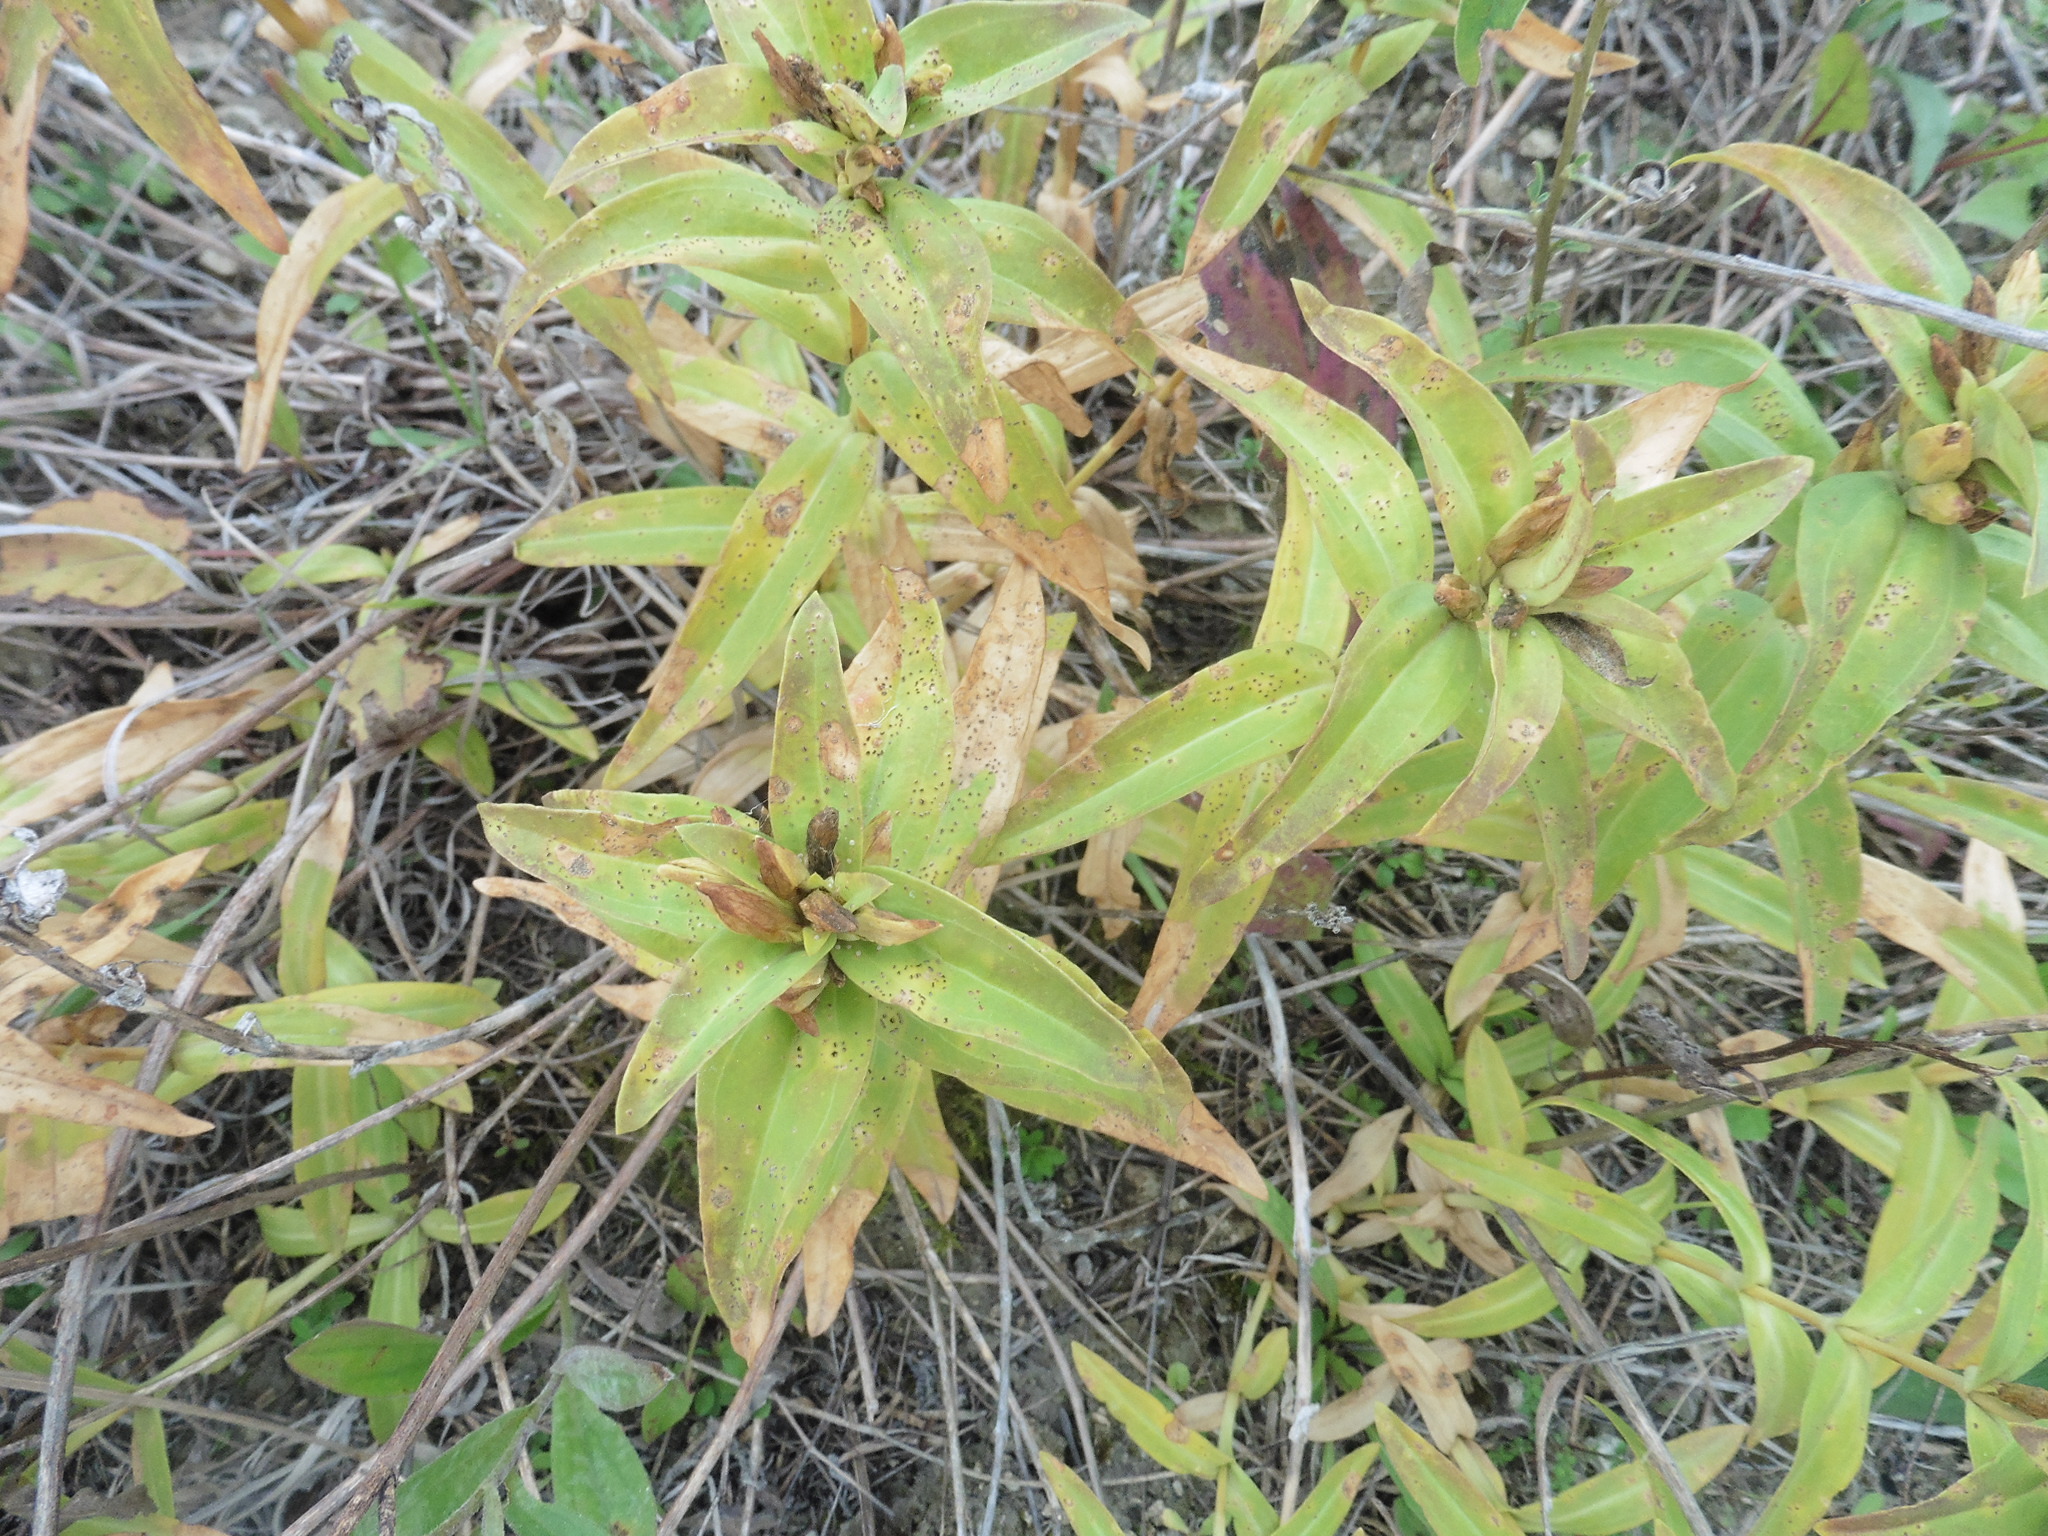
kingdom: Plantae
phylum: Tracheophyta
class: Magnoliopsida
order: Gentianales
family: Gentianaceae
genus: Gentiana
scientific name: Gentiana cruciata
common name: Cross gentian
